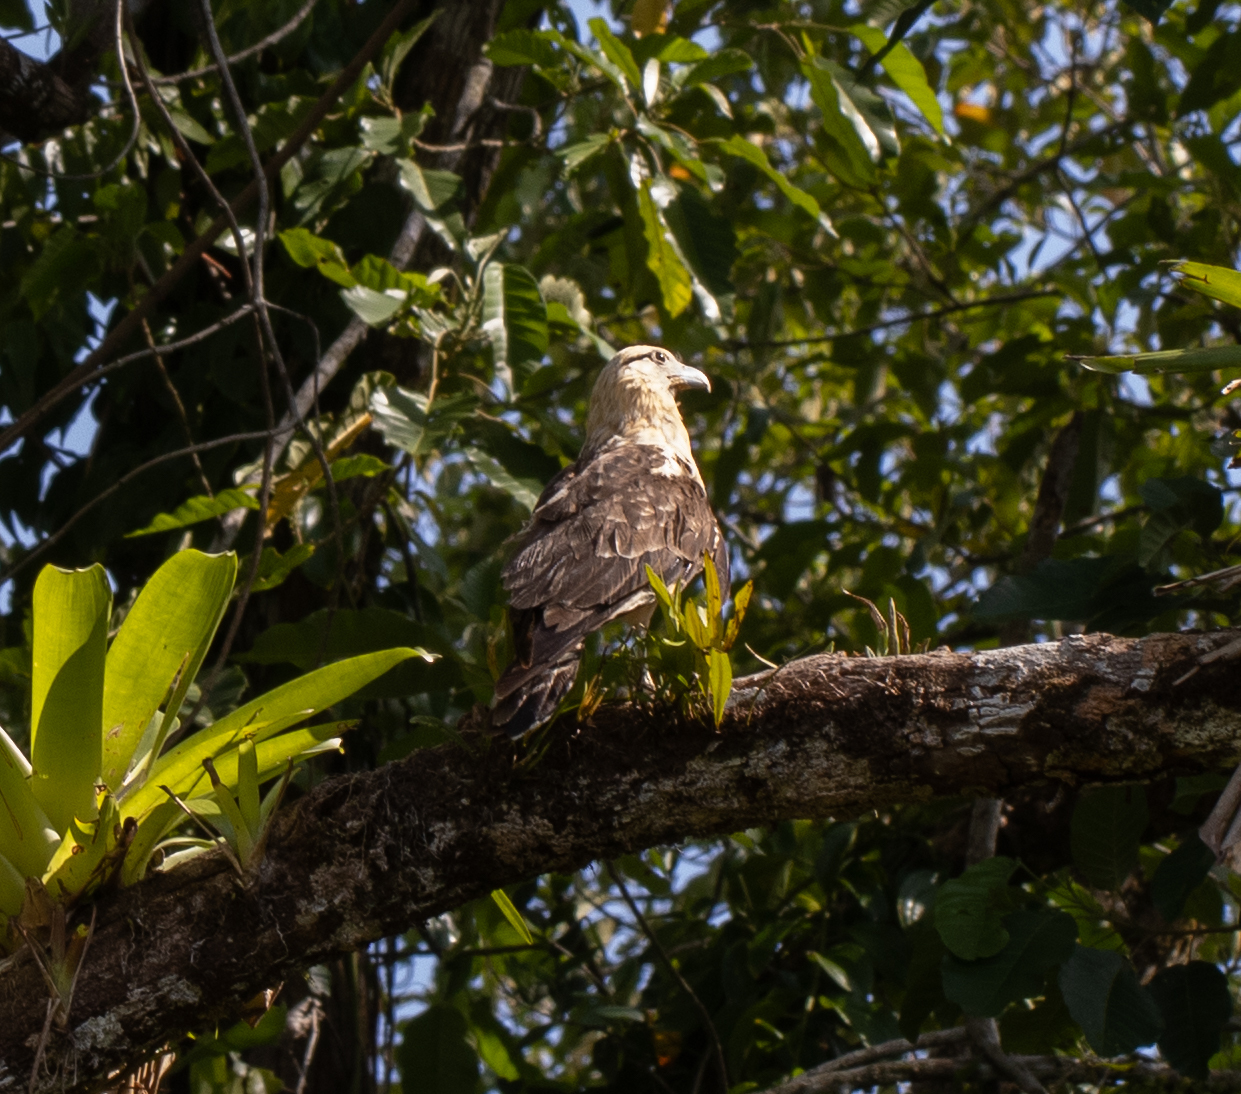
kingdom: Animalia
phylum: Chordata
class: Aves
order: Falconiformes
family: Falconidae
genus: Daptrius
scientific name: Daptrius
